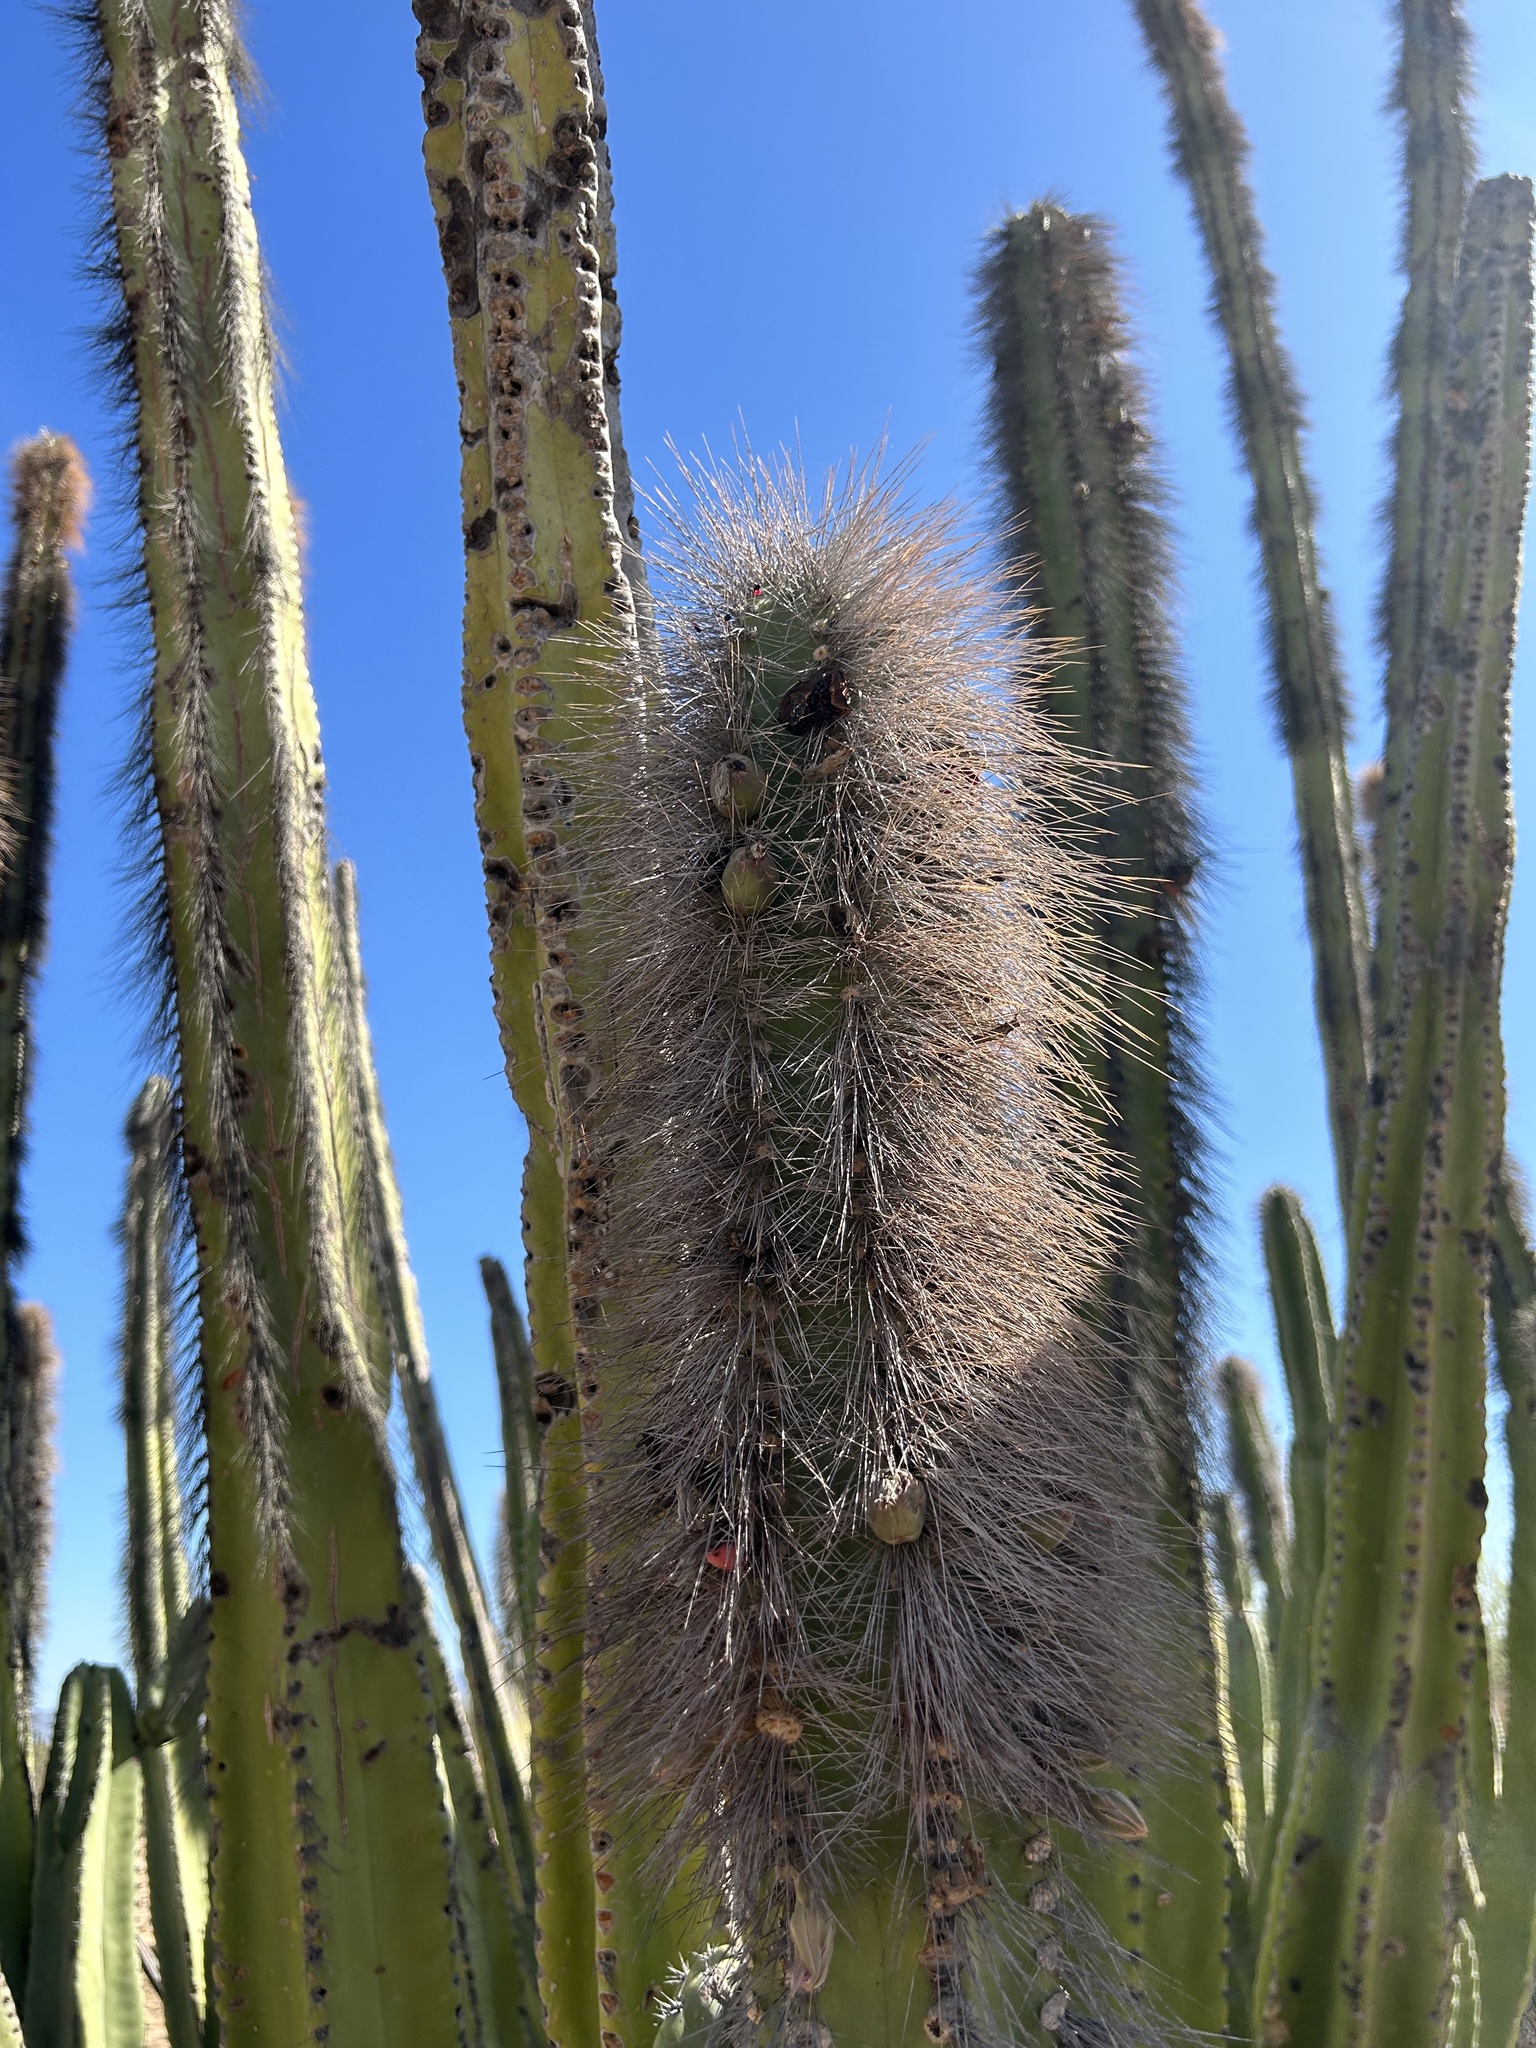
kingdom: Plantae
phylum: Tracheophyta
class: Magnoliopsida
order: Caryophyllales
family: Cactaceae
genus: Pachycereus
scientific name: Pachycereus schottii
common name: Senita cactus
